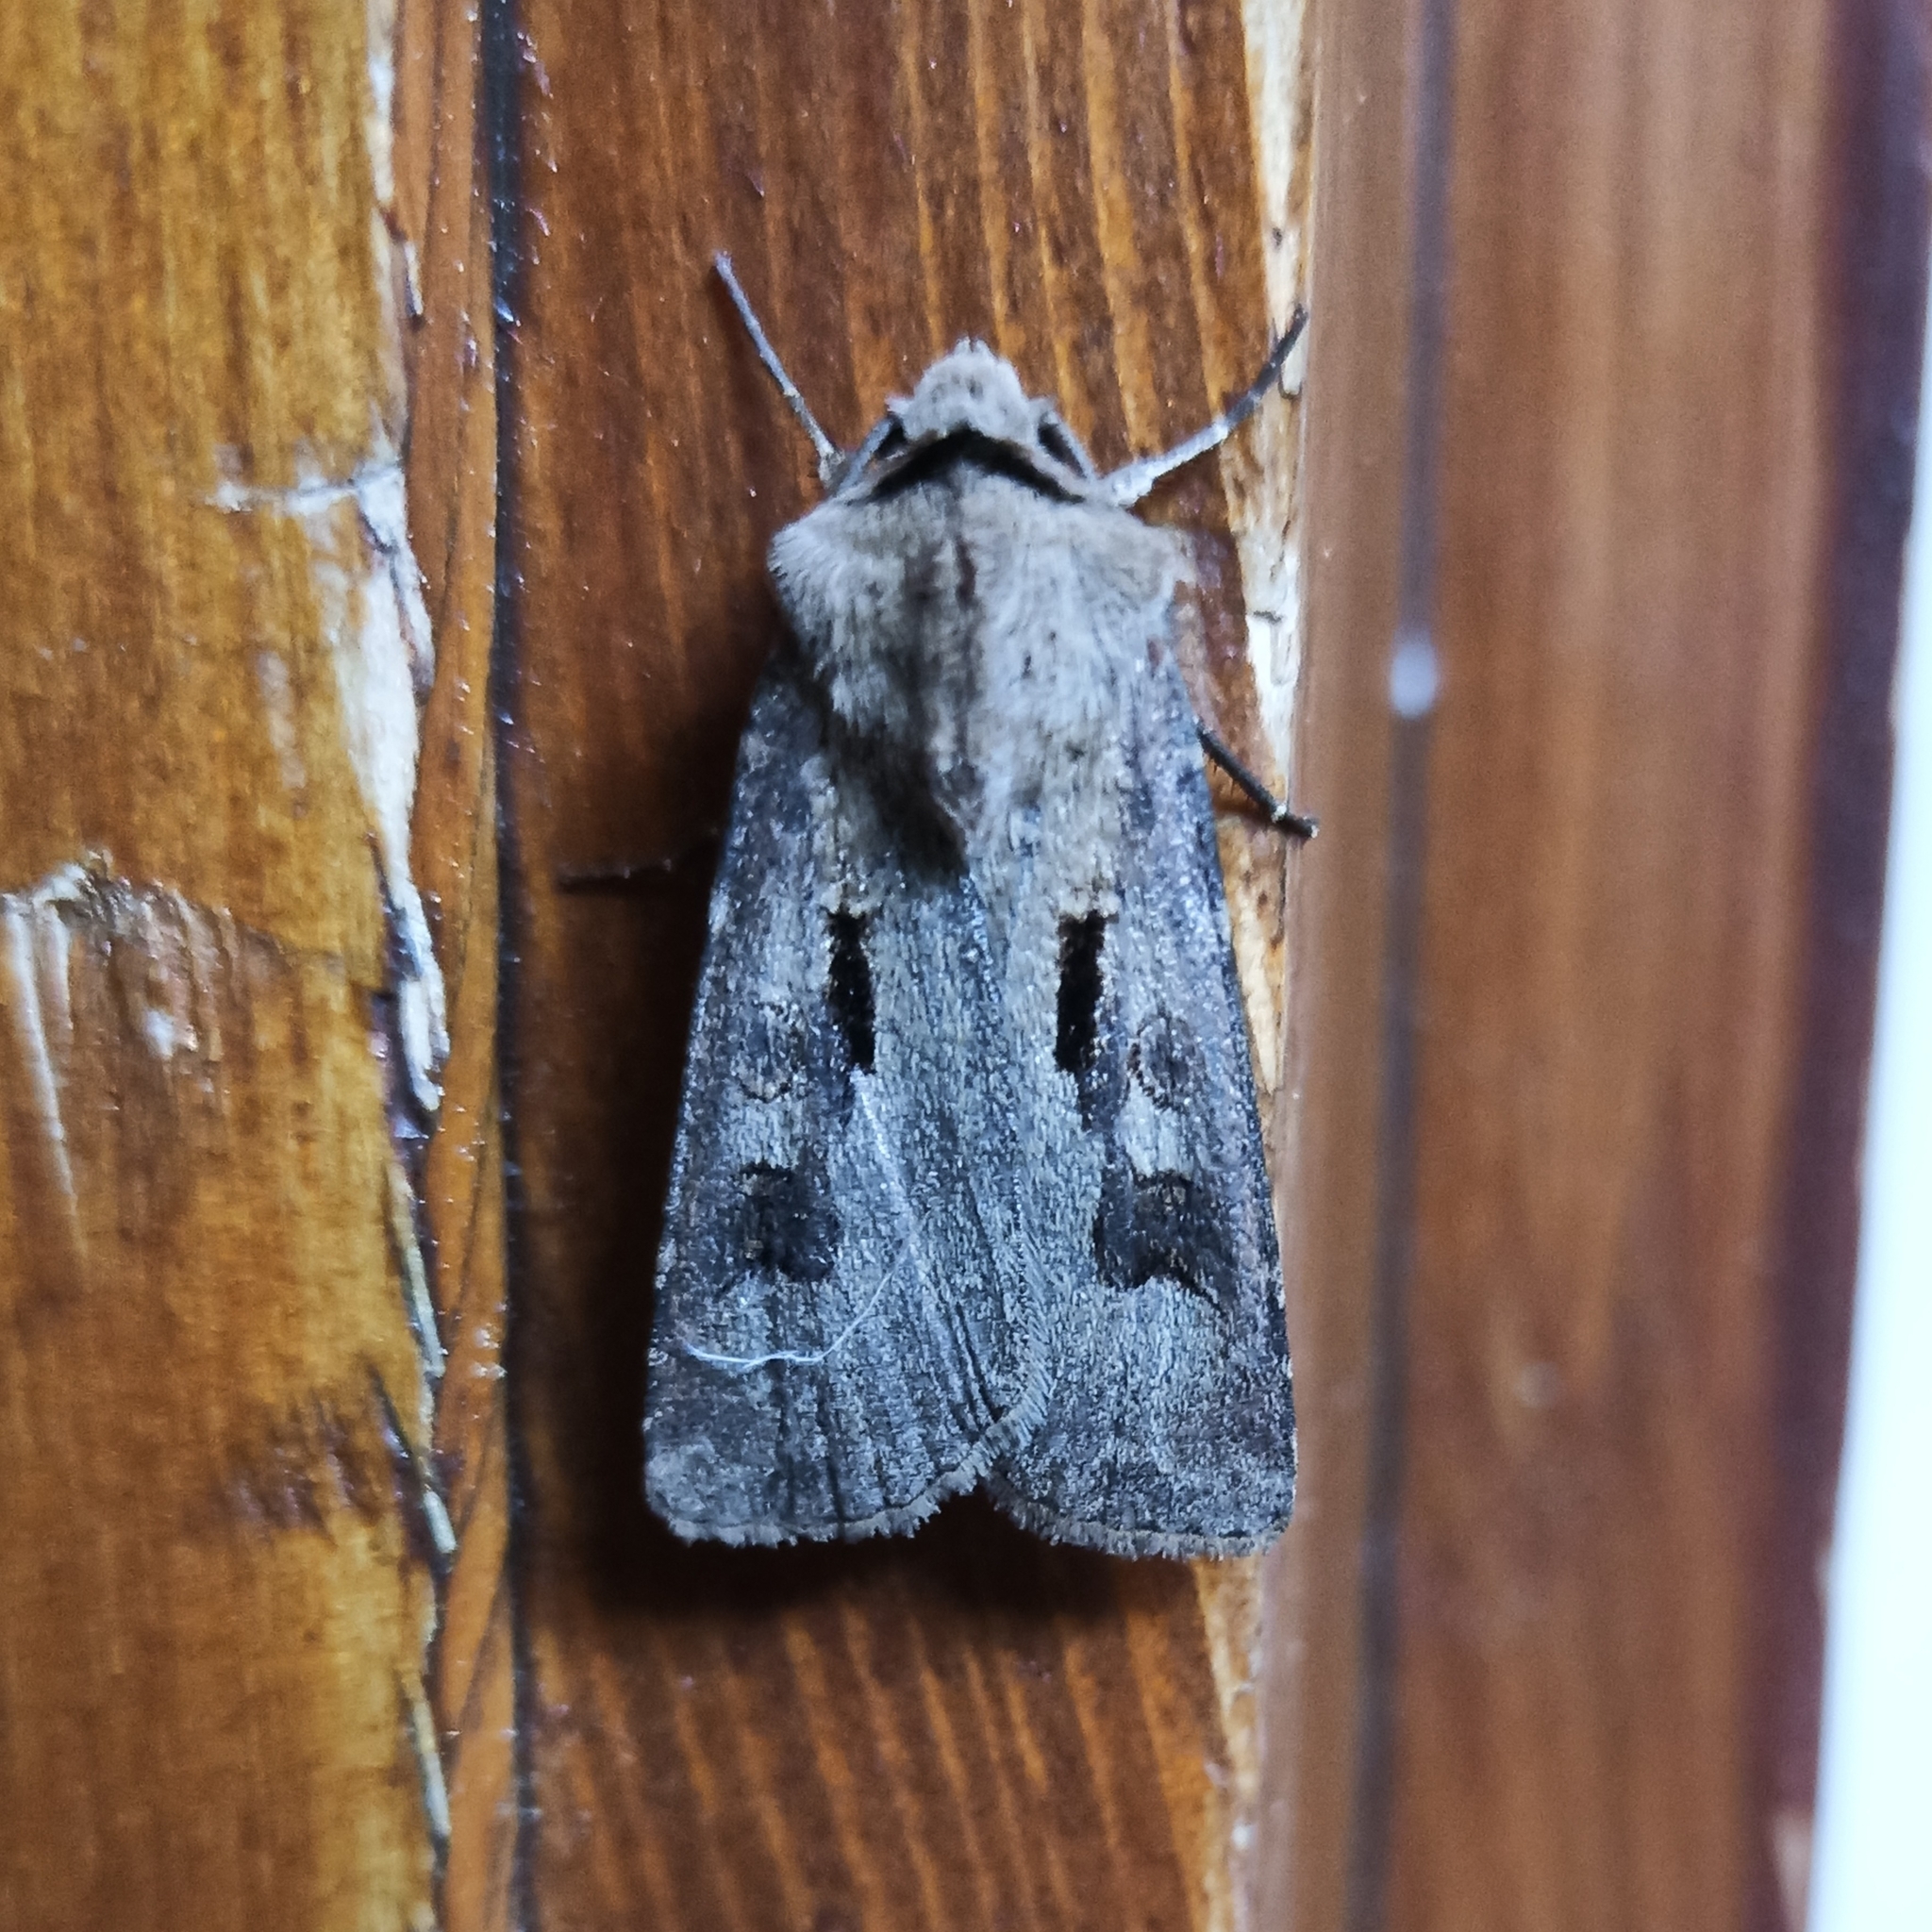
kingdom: Animalia
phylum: Arthropoda
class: Insecta
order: Lepidoptera
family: Noctuidae
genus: Agrotis
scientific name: Agrotis exclamationis
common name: Heart and dart
